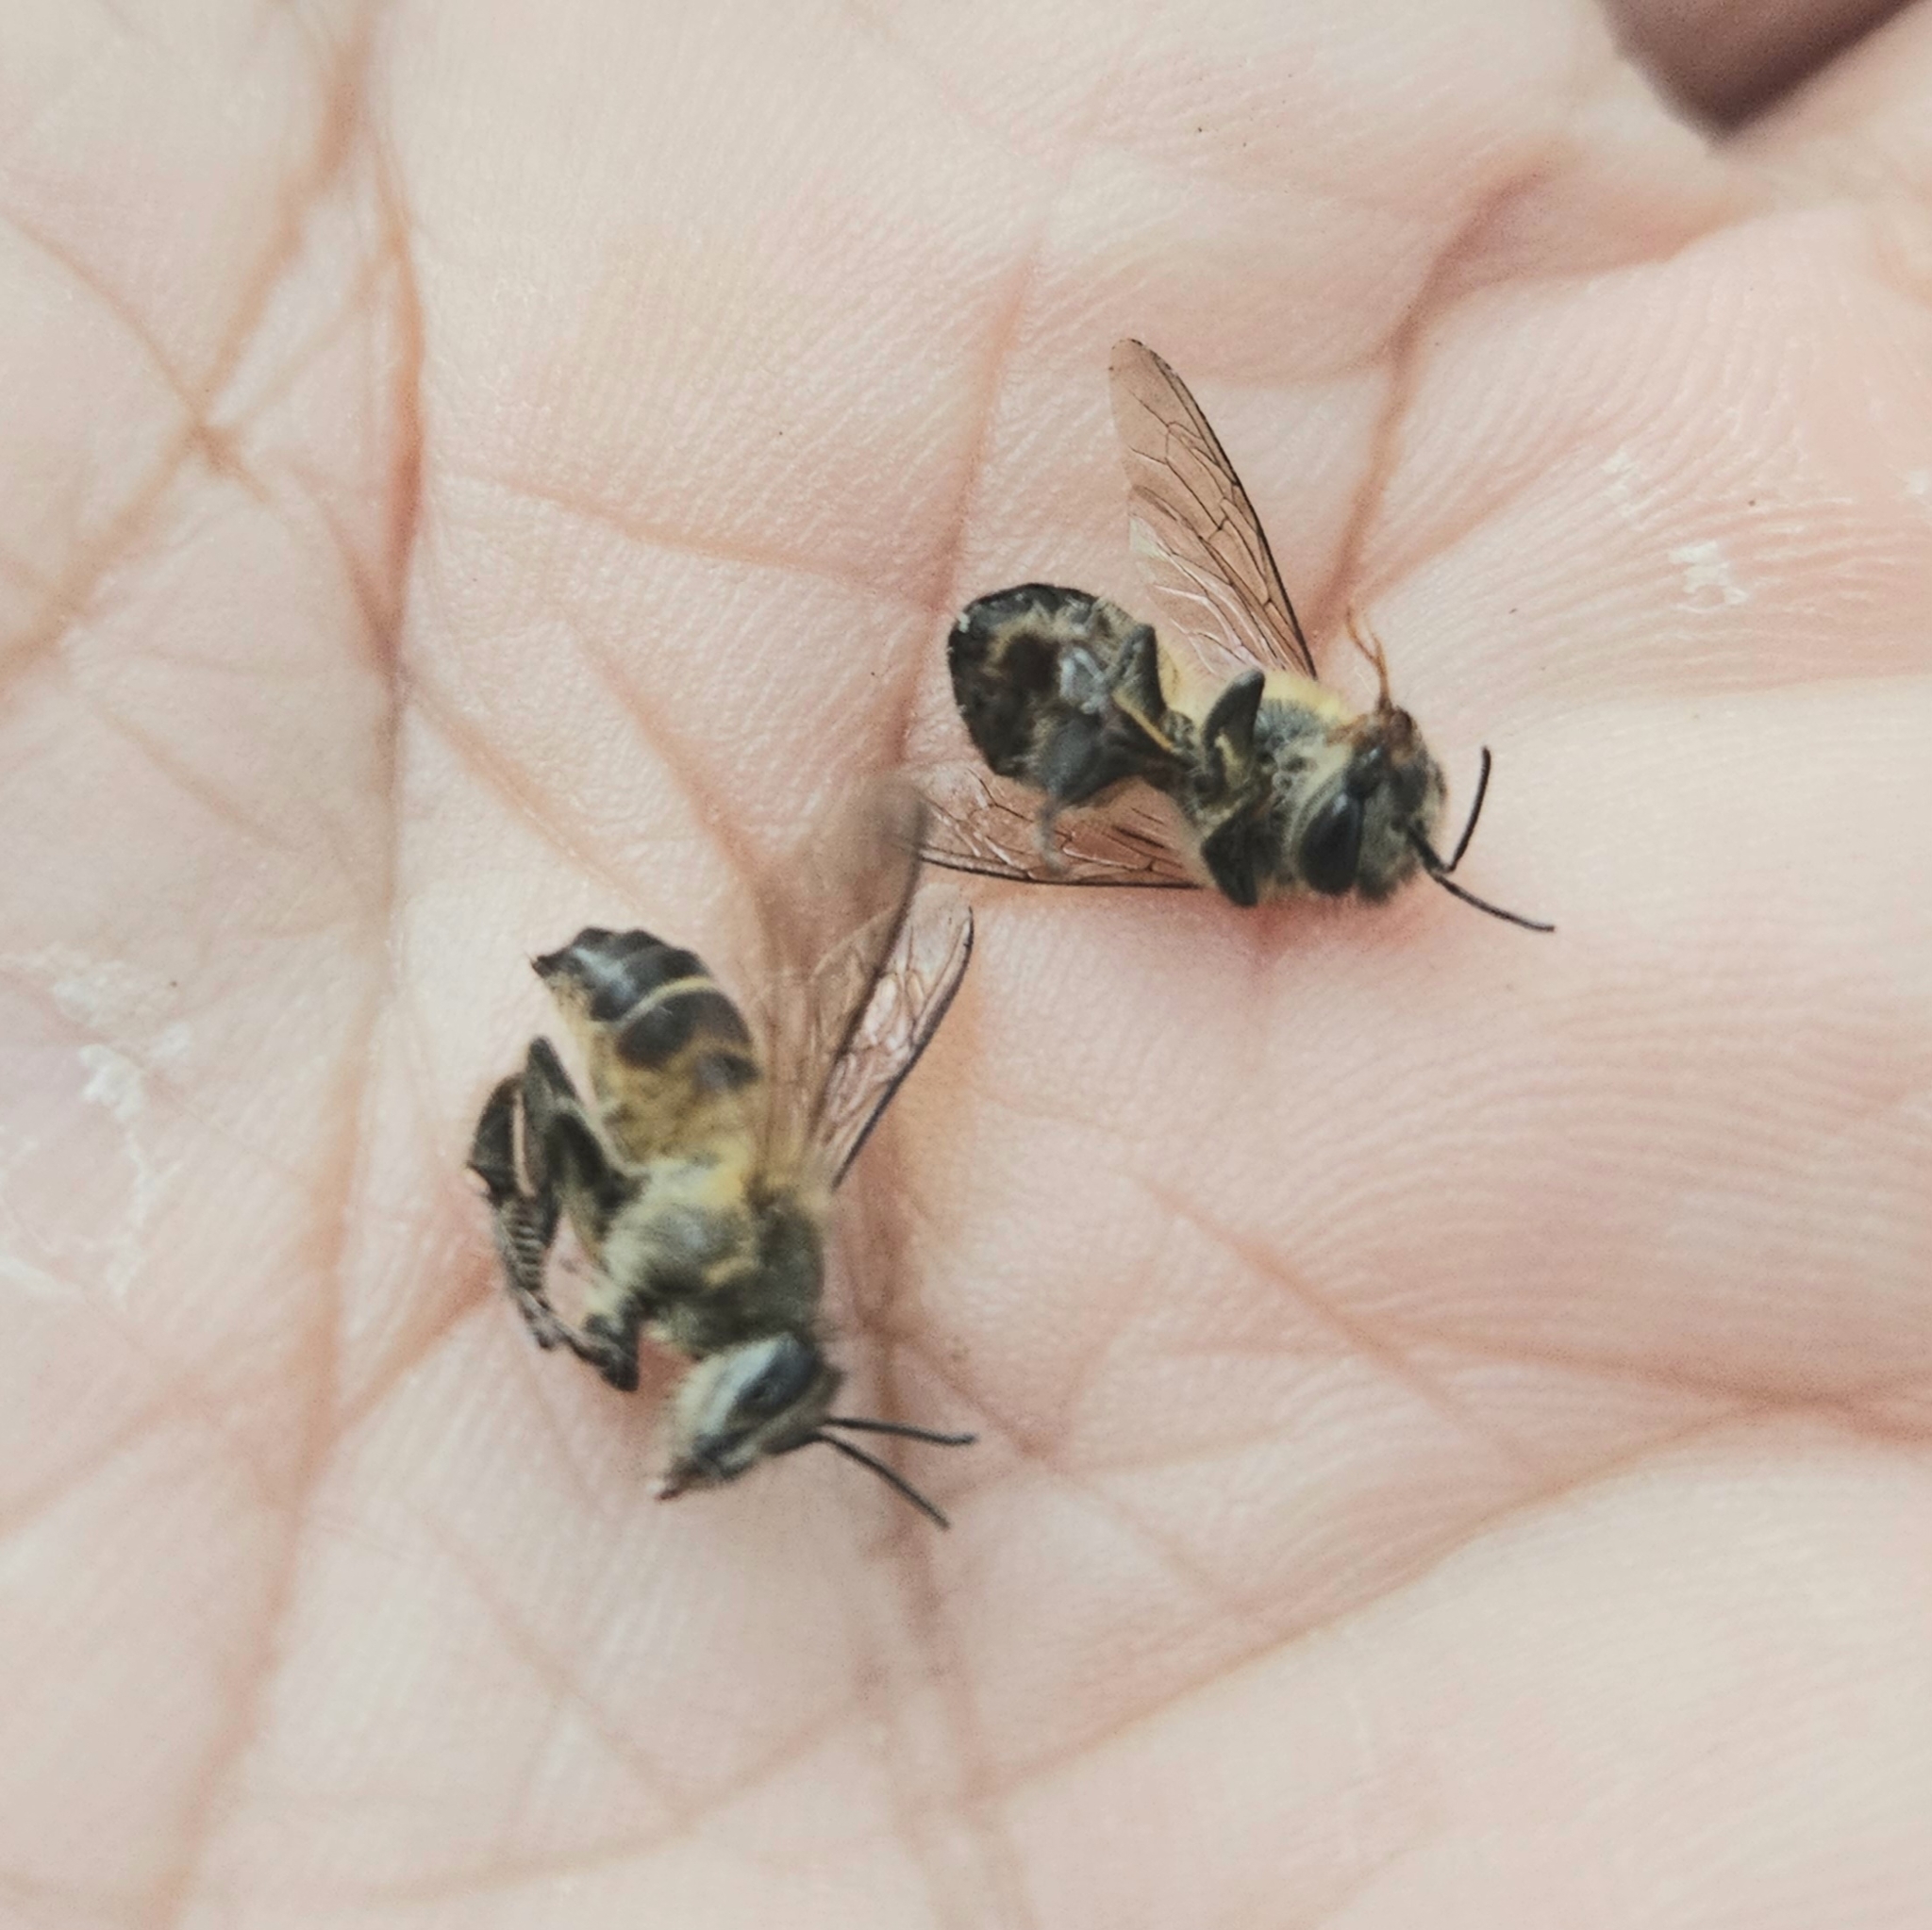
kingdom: Animalia
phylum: Arthropoda
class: Insecta
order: Hymenoptera
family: Apidae
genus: Apis
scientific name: Apis cerana
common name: Honey bee
